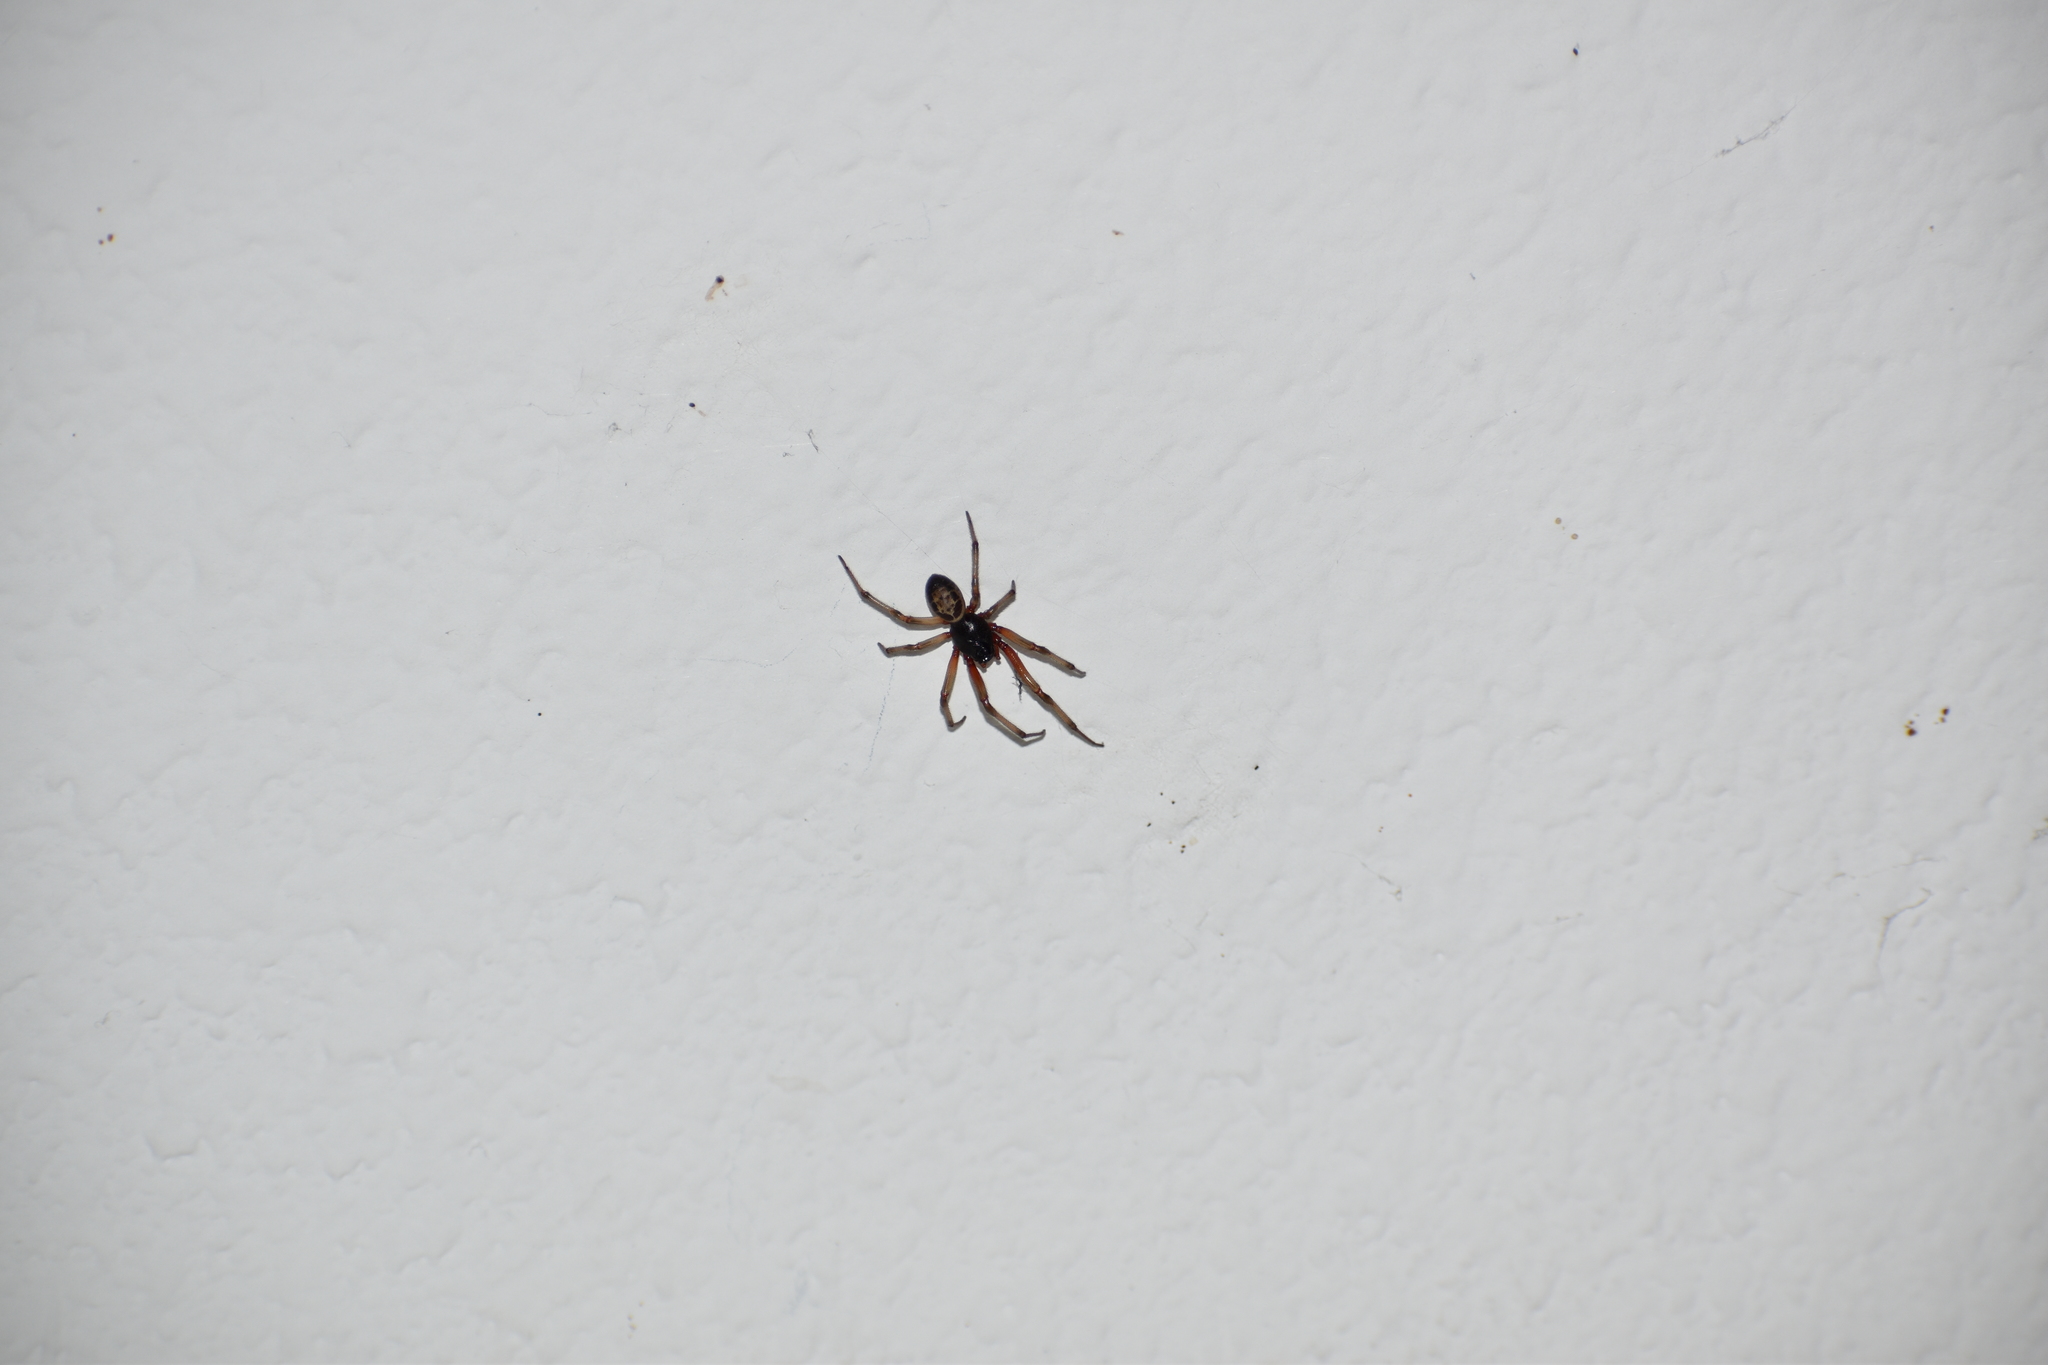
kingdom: Animalia
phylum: Arthropoda
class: Arachnida
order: Araneae
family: Theridiidae
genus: Steatoda
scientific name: Steatoda nobilis
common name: Cobweb weaver
